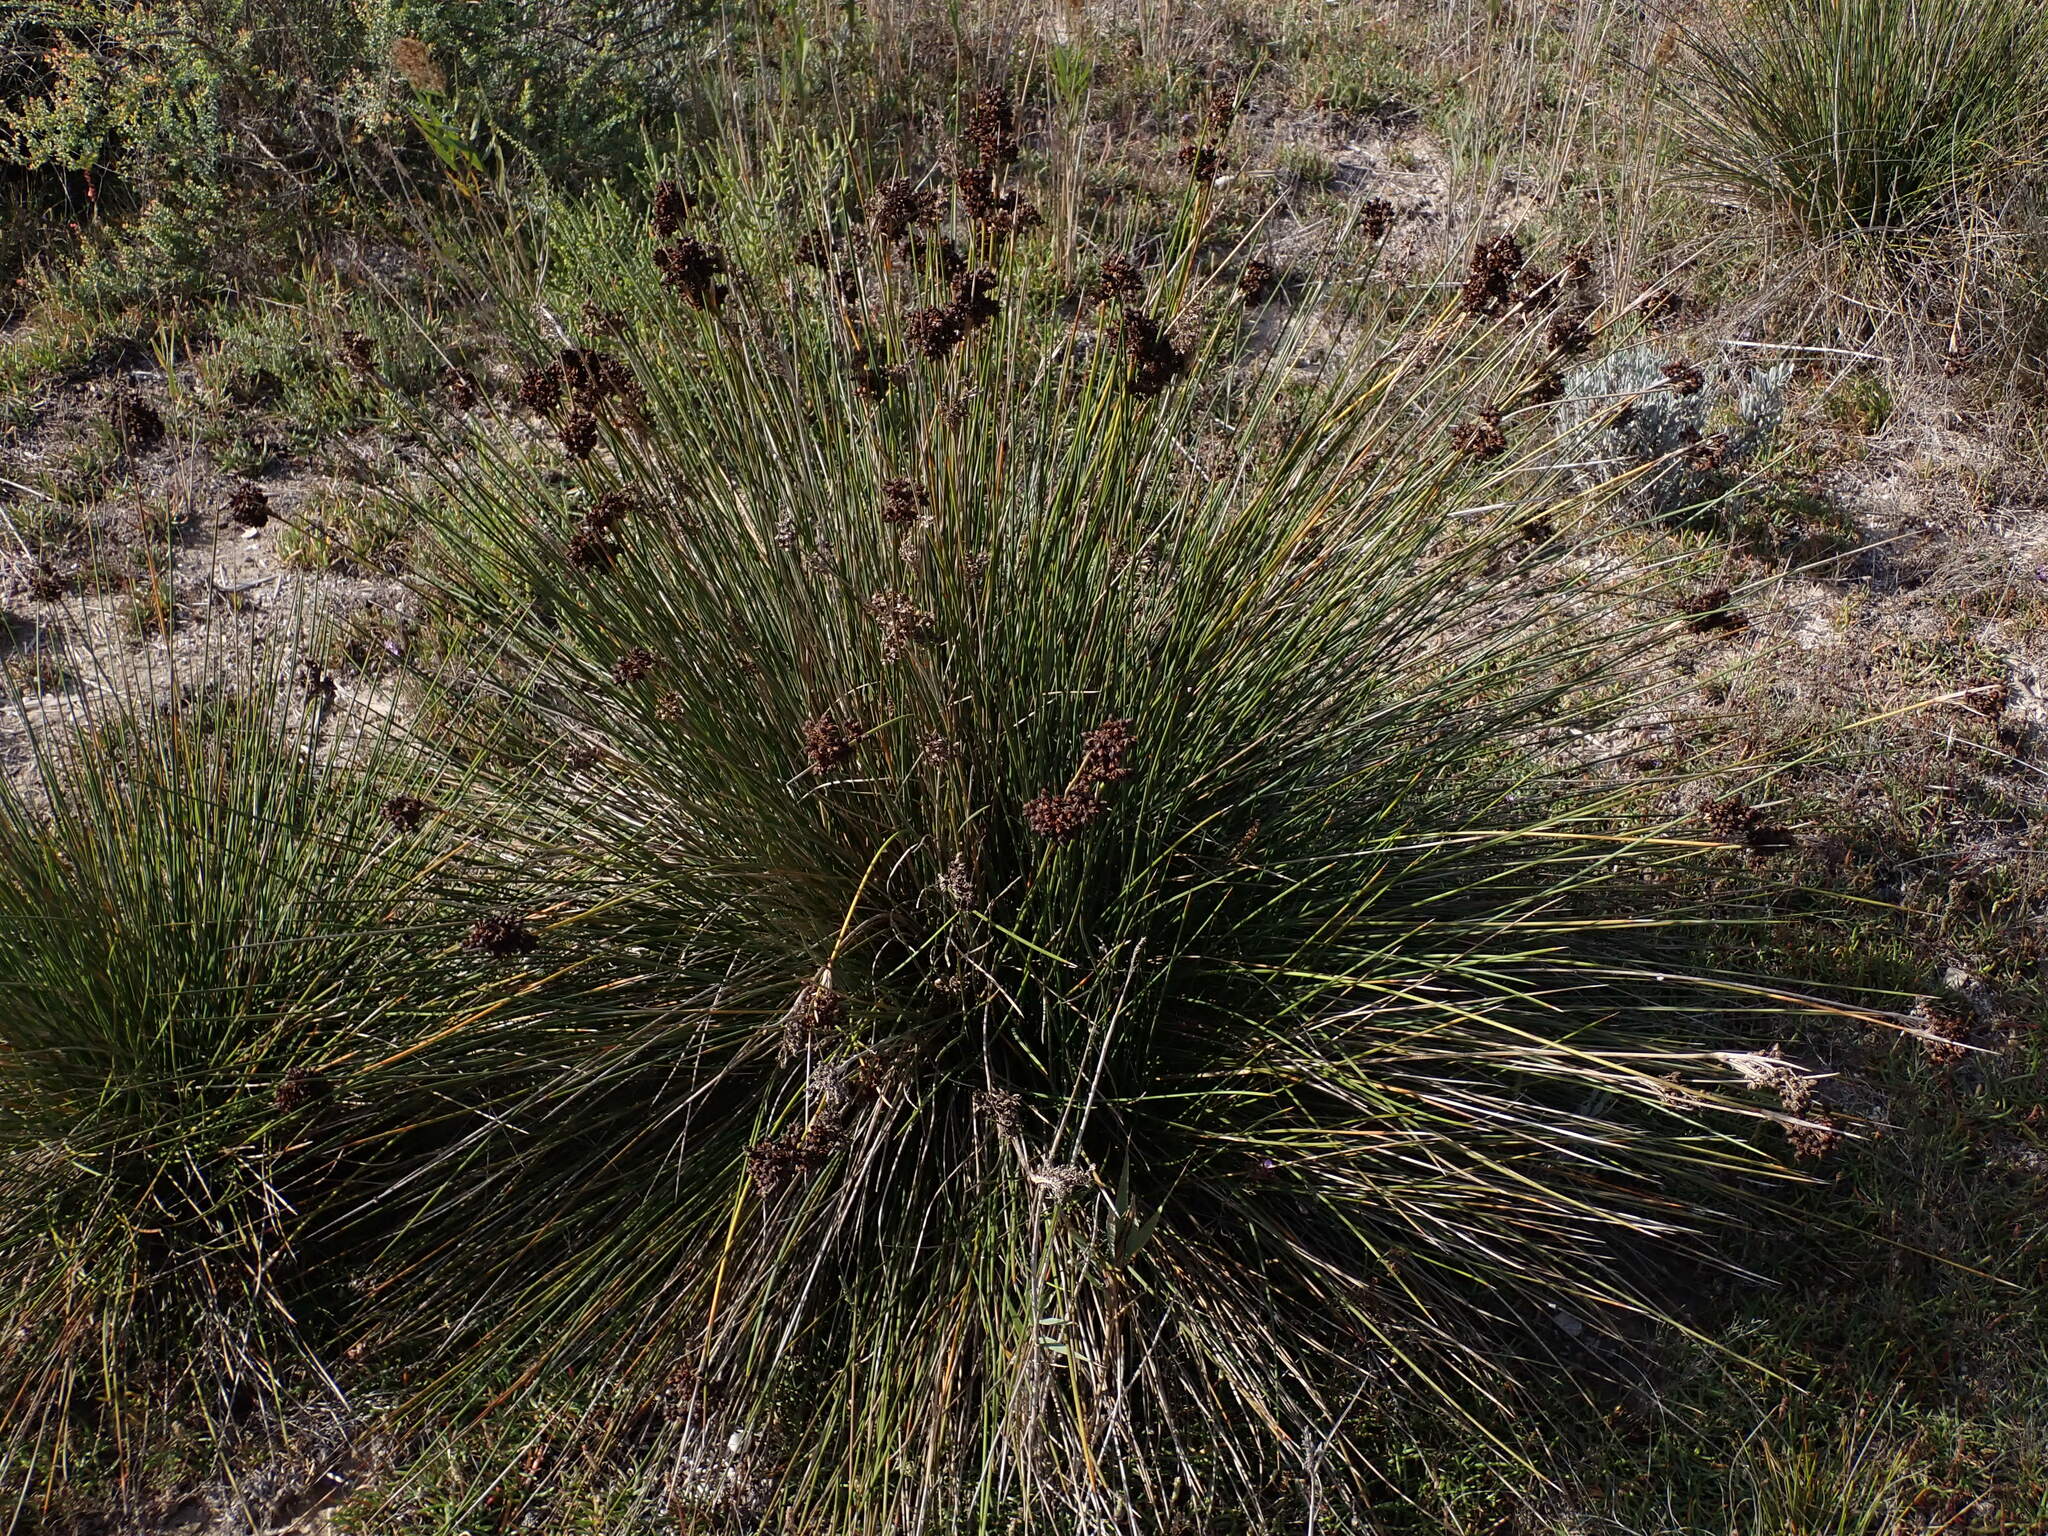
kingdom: Plantae
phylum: Tracheophyta
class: Liliopsida
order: Poales
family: Juncaceae
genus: Juncus
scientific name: Juncus acutus
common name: Sharp rush
